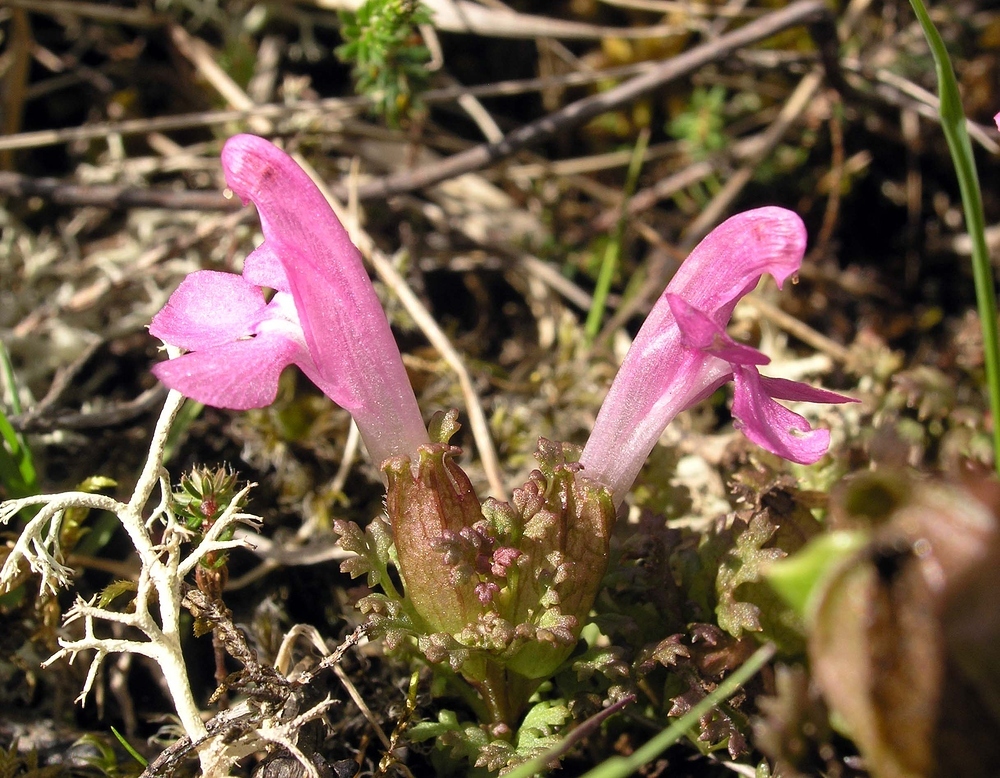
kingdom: Plantae
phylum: Tracheophyta
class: Magnoliopsida
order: Lamiales
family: Orobanchaceae
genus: Pedicularis
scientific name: Pedicularis sylvatica
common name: Lousewort
